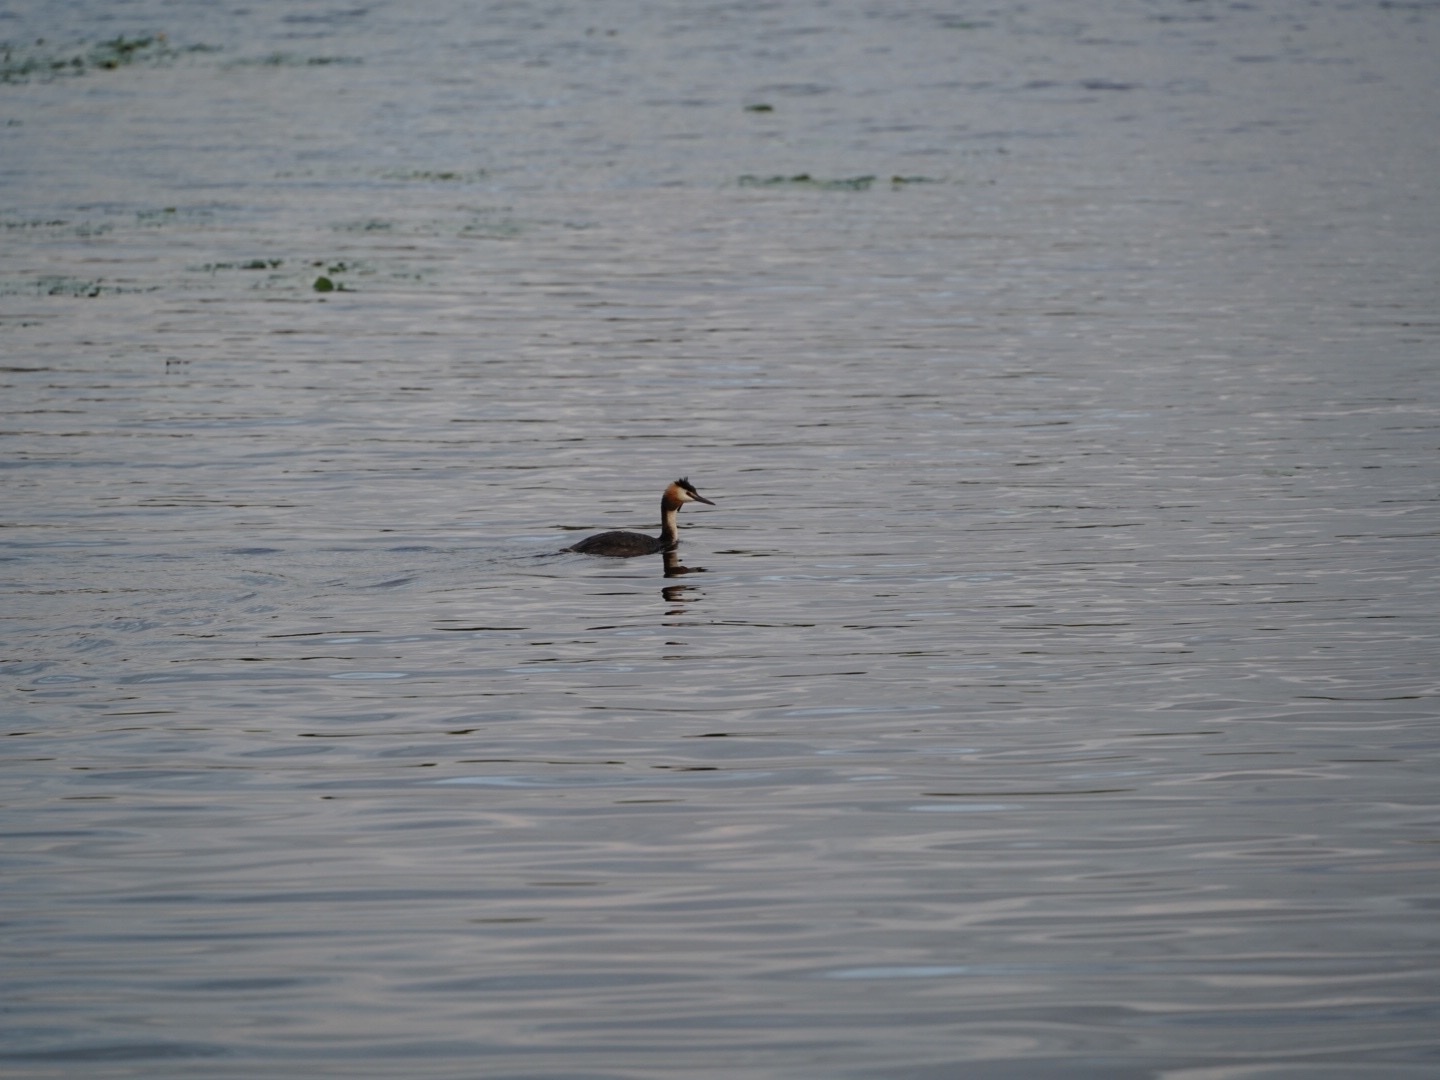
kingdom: Animalia
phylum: Chordata
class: Aves
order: Podicipediformes
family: Podicipedidae
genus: Podiceps
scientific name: Podiceps cristatus
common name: Great crested grebe
